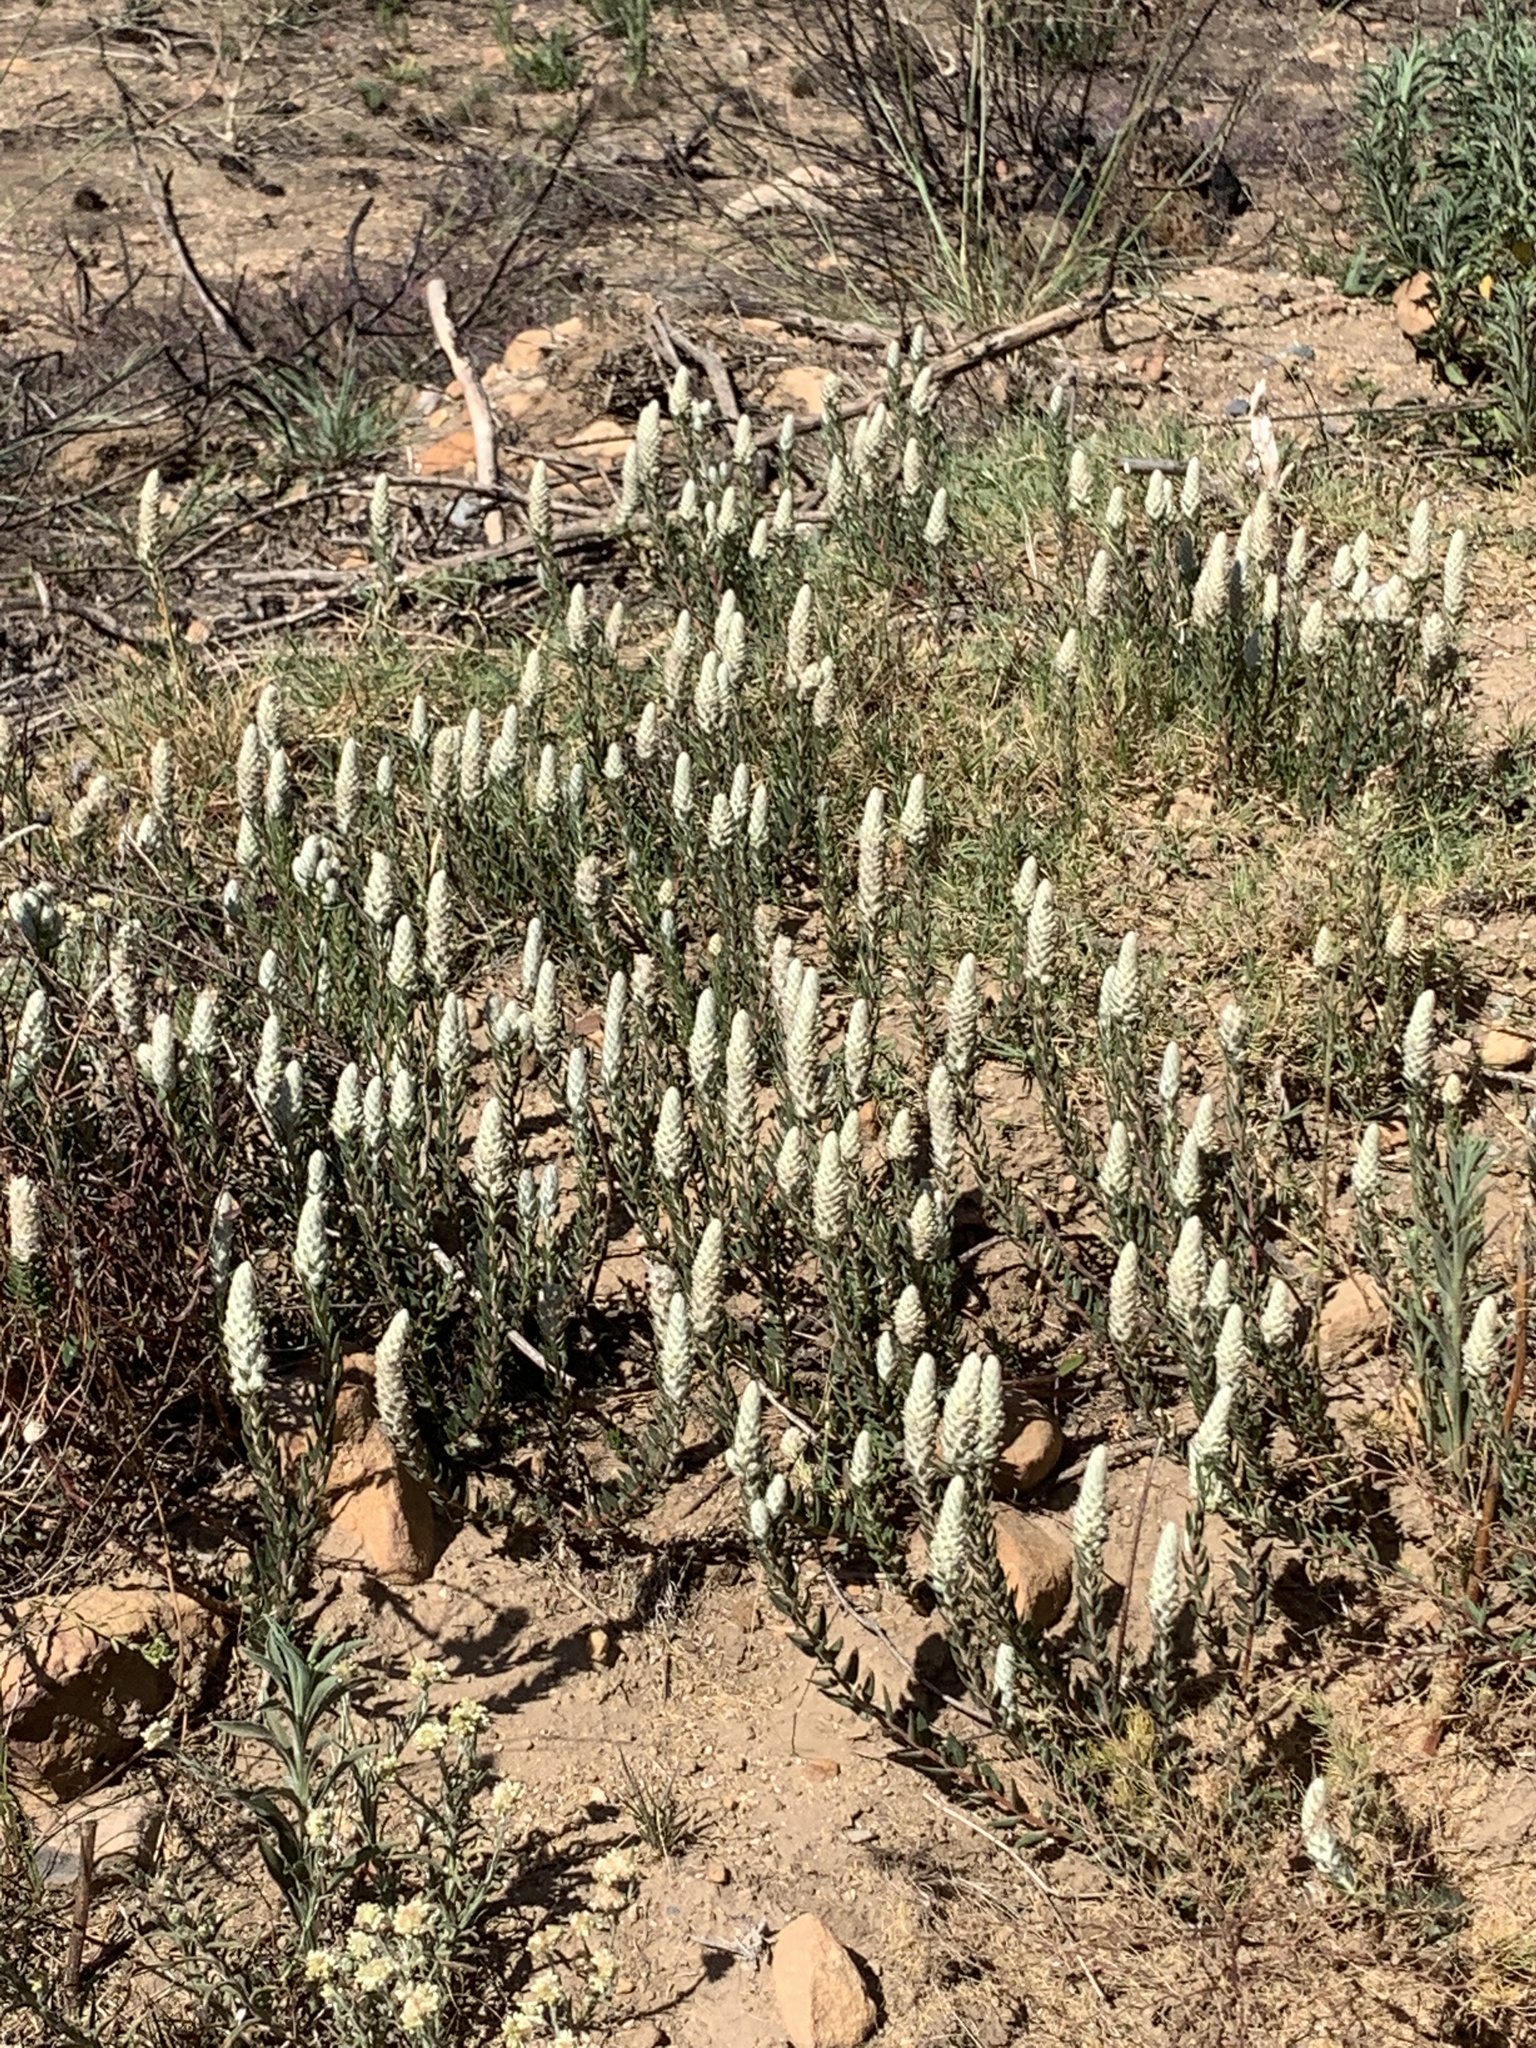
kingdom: Plantae
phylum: Tracheophyta
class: Magnoliopsida
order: Rosales
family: Rhamnaceae
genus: Phylica
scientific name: Phylica spicata
